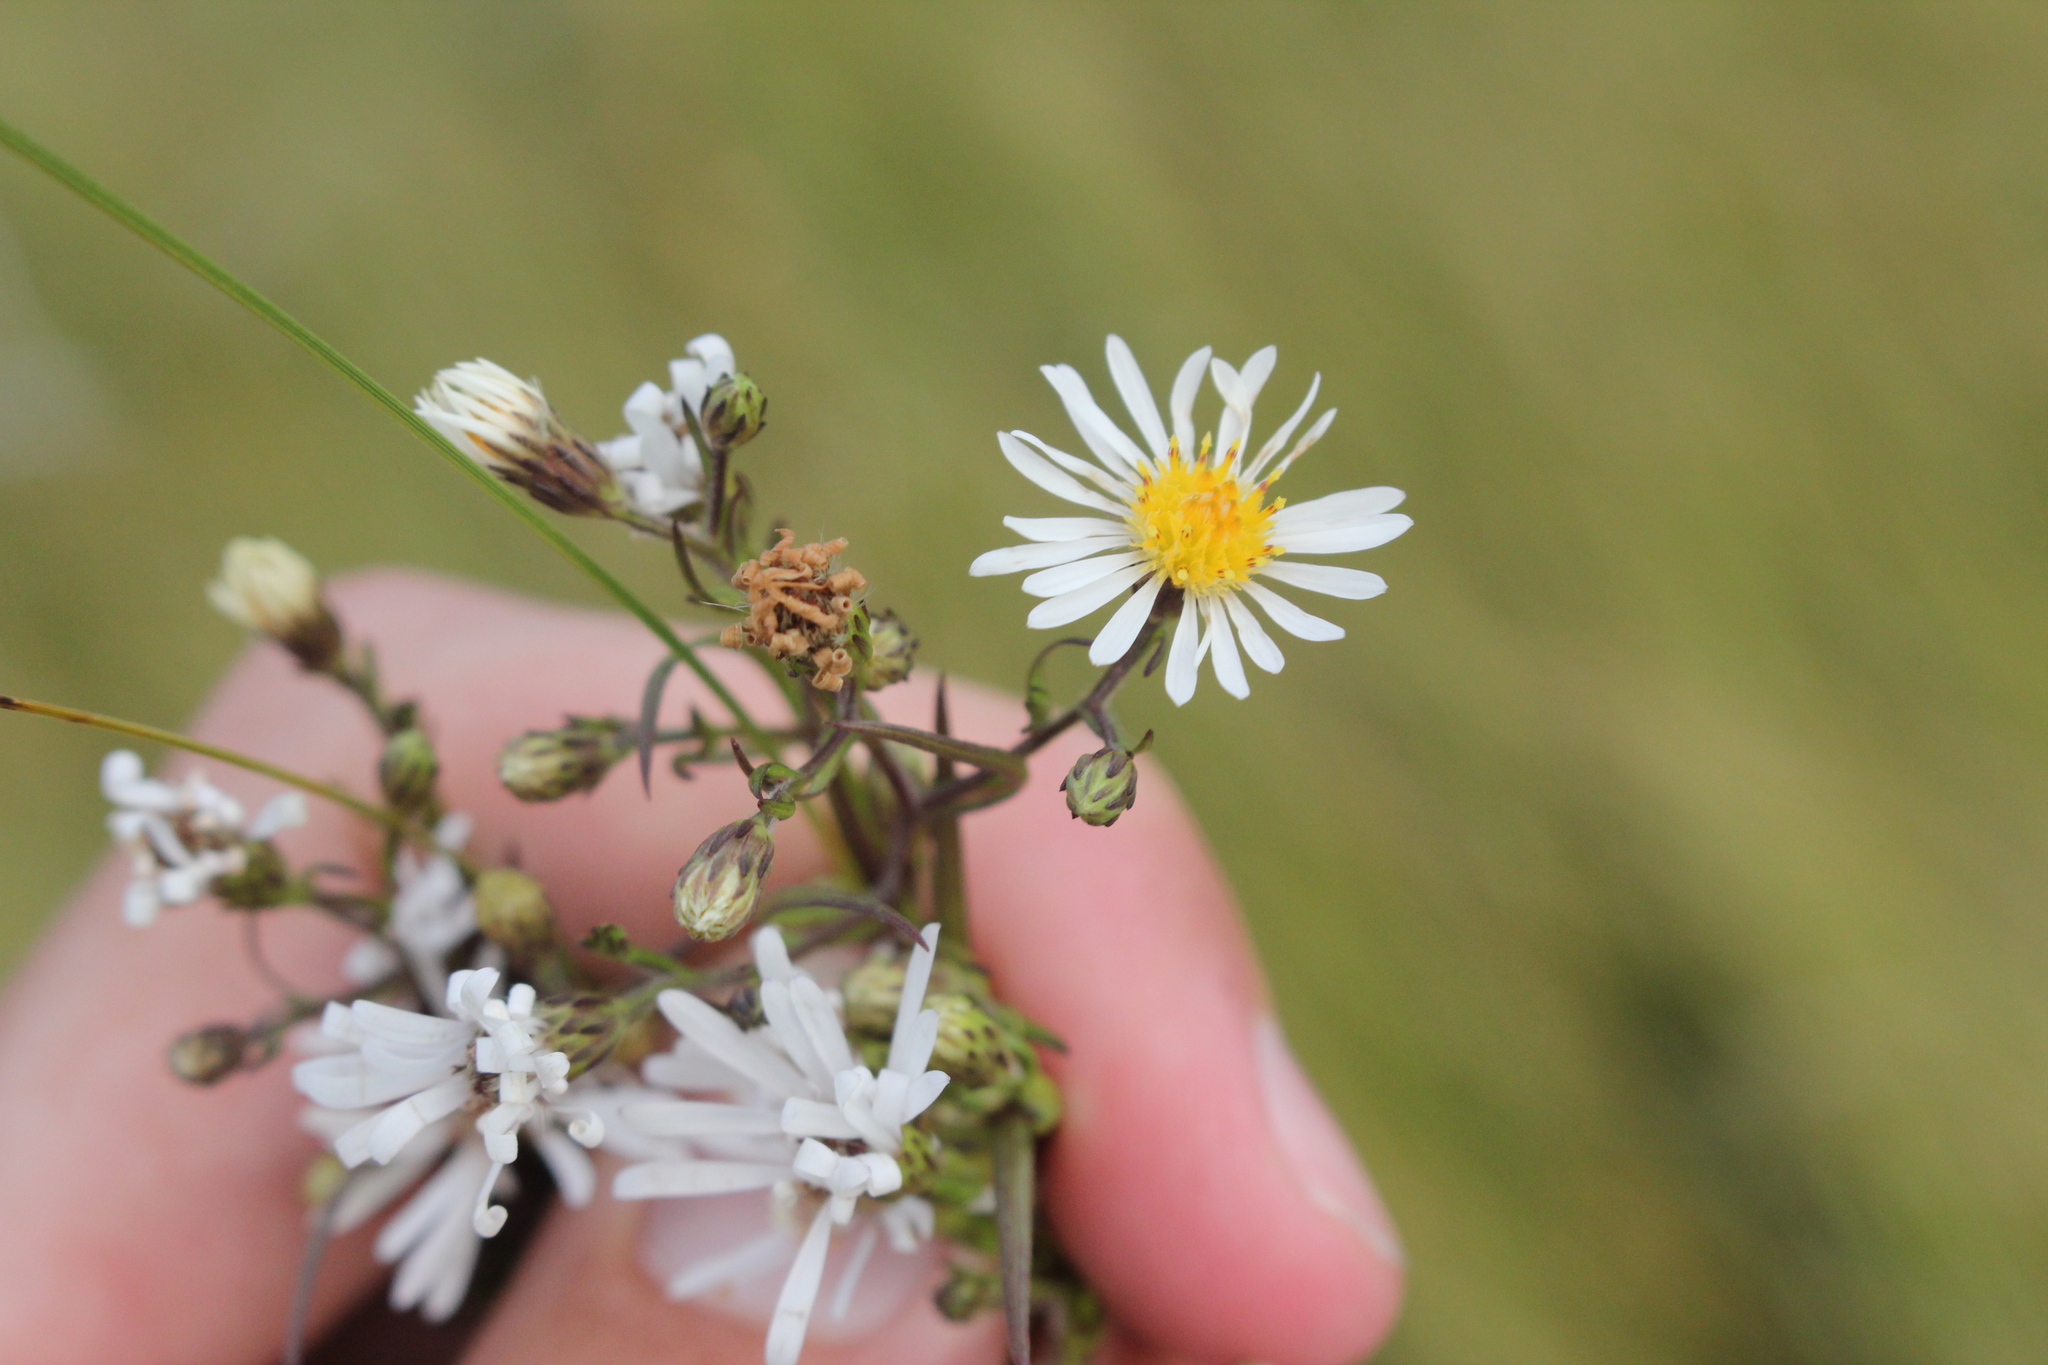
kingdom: Plantae
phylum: Tracheophyta
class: Magnoliopsida
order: Asterales
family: Asteraceae
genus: Symphyotrichum
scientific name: Symphyotrichum boreale
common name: Northern bog aster
